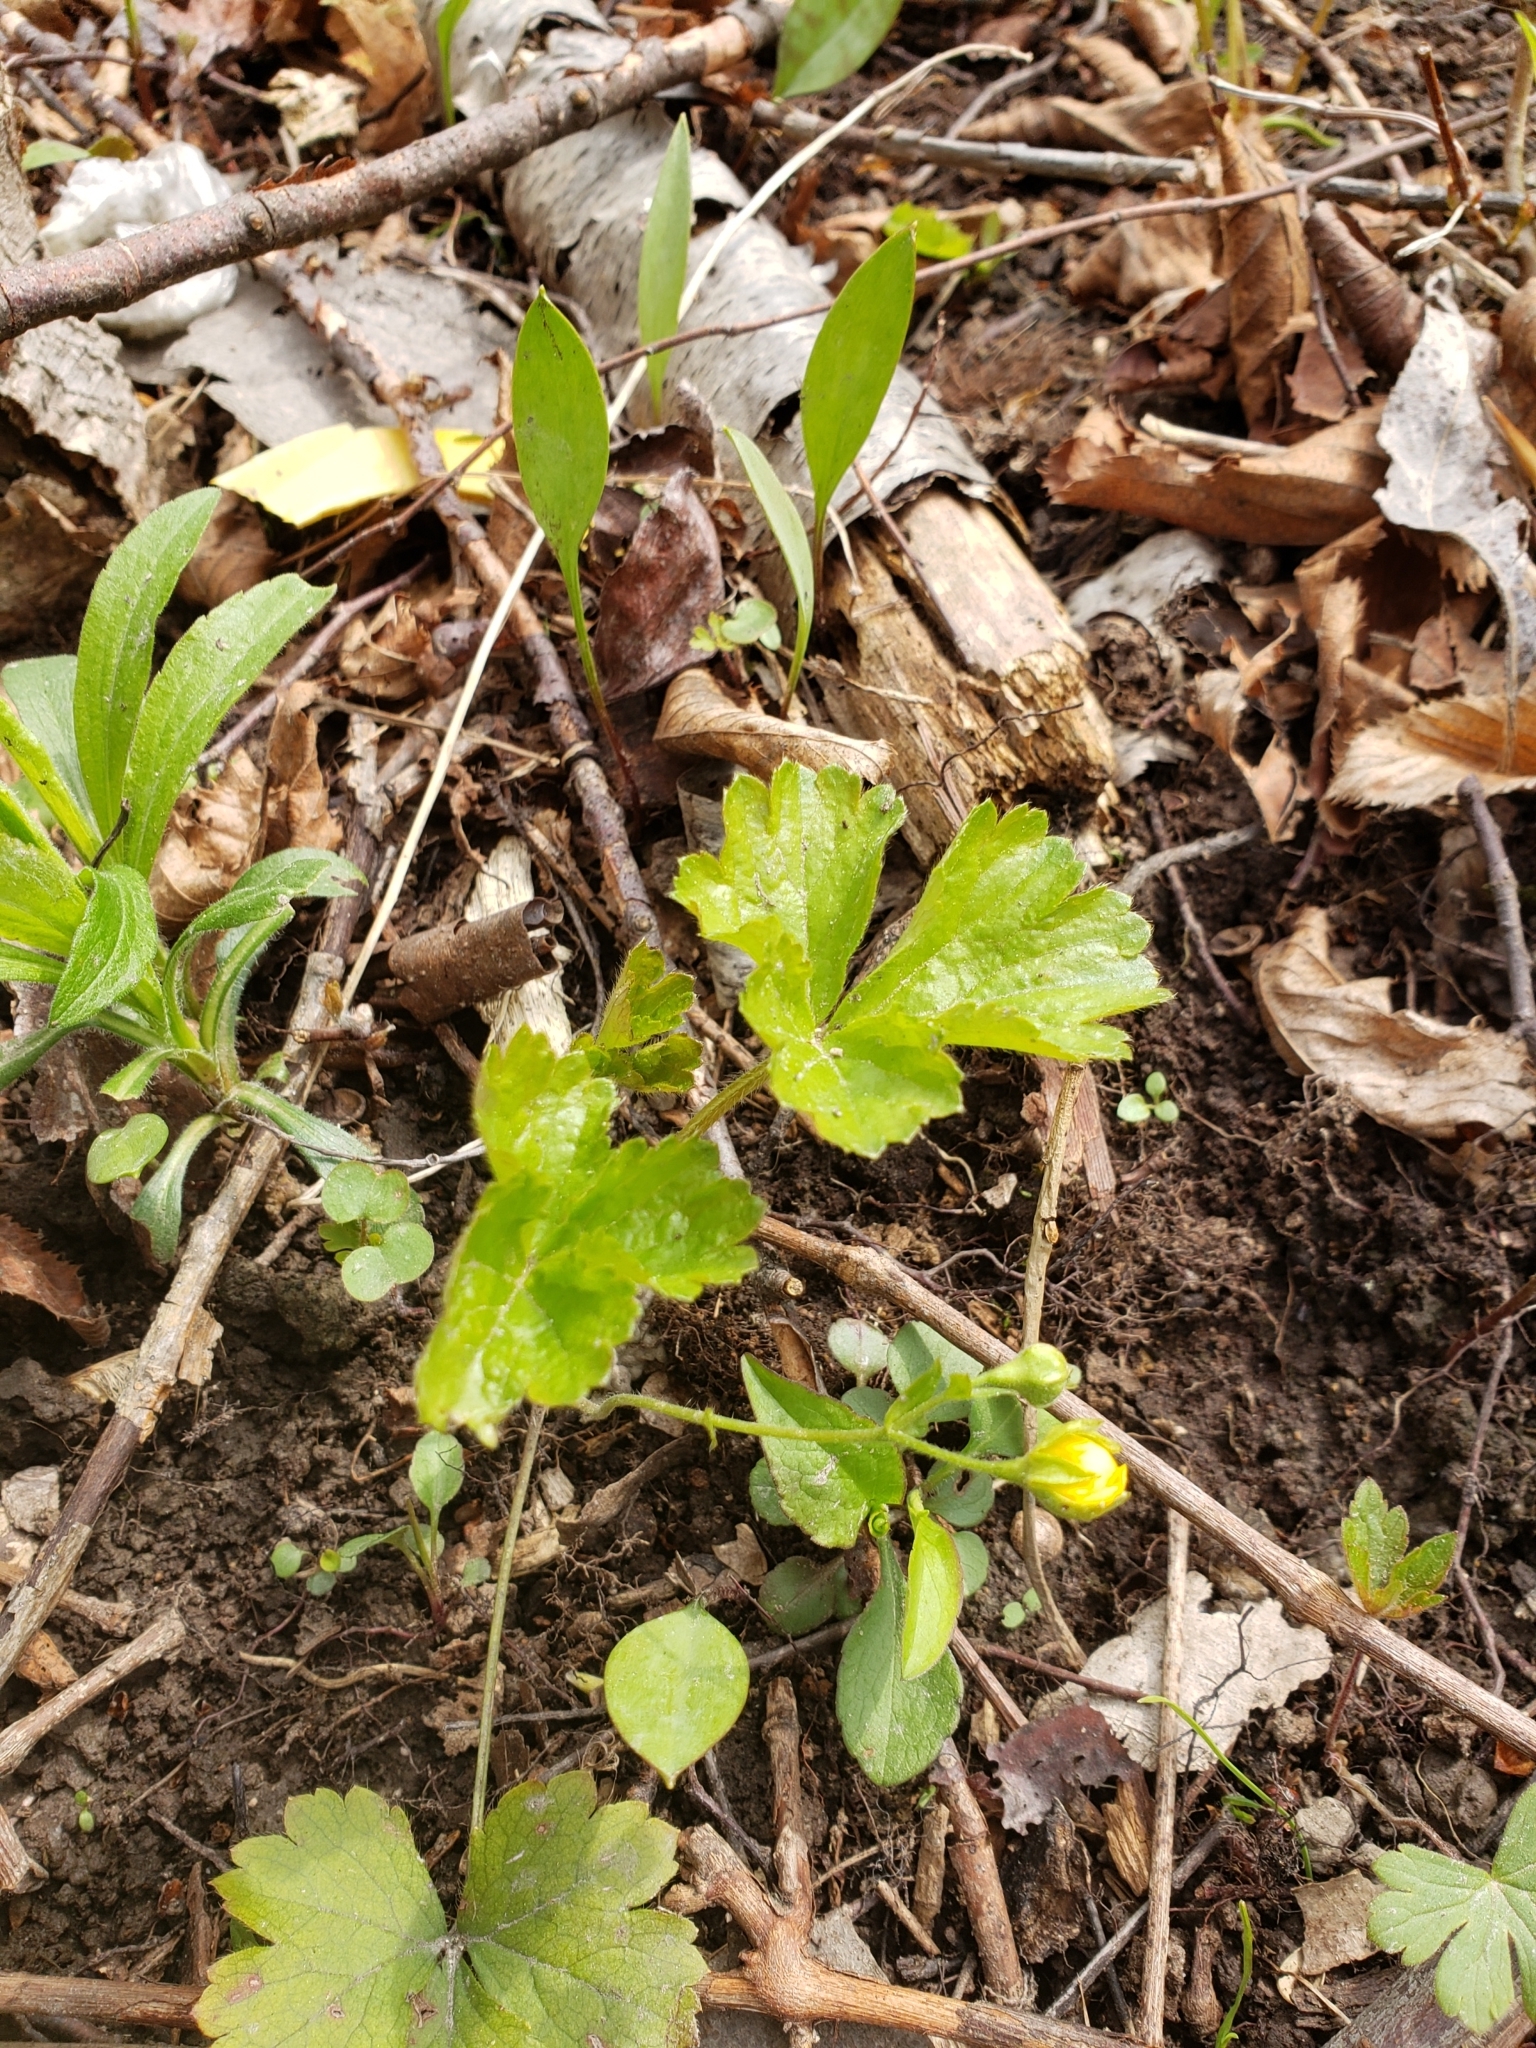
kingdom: Plantae
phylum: Tracheophyta
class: Magnoliopsida
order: Rosales
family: Rosaceae
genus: Geum
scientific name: Geum fragarioides
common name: Appalachian barren strawberry
